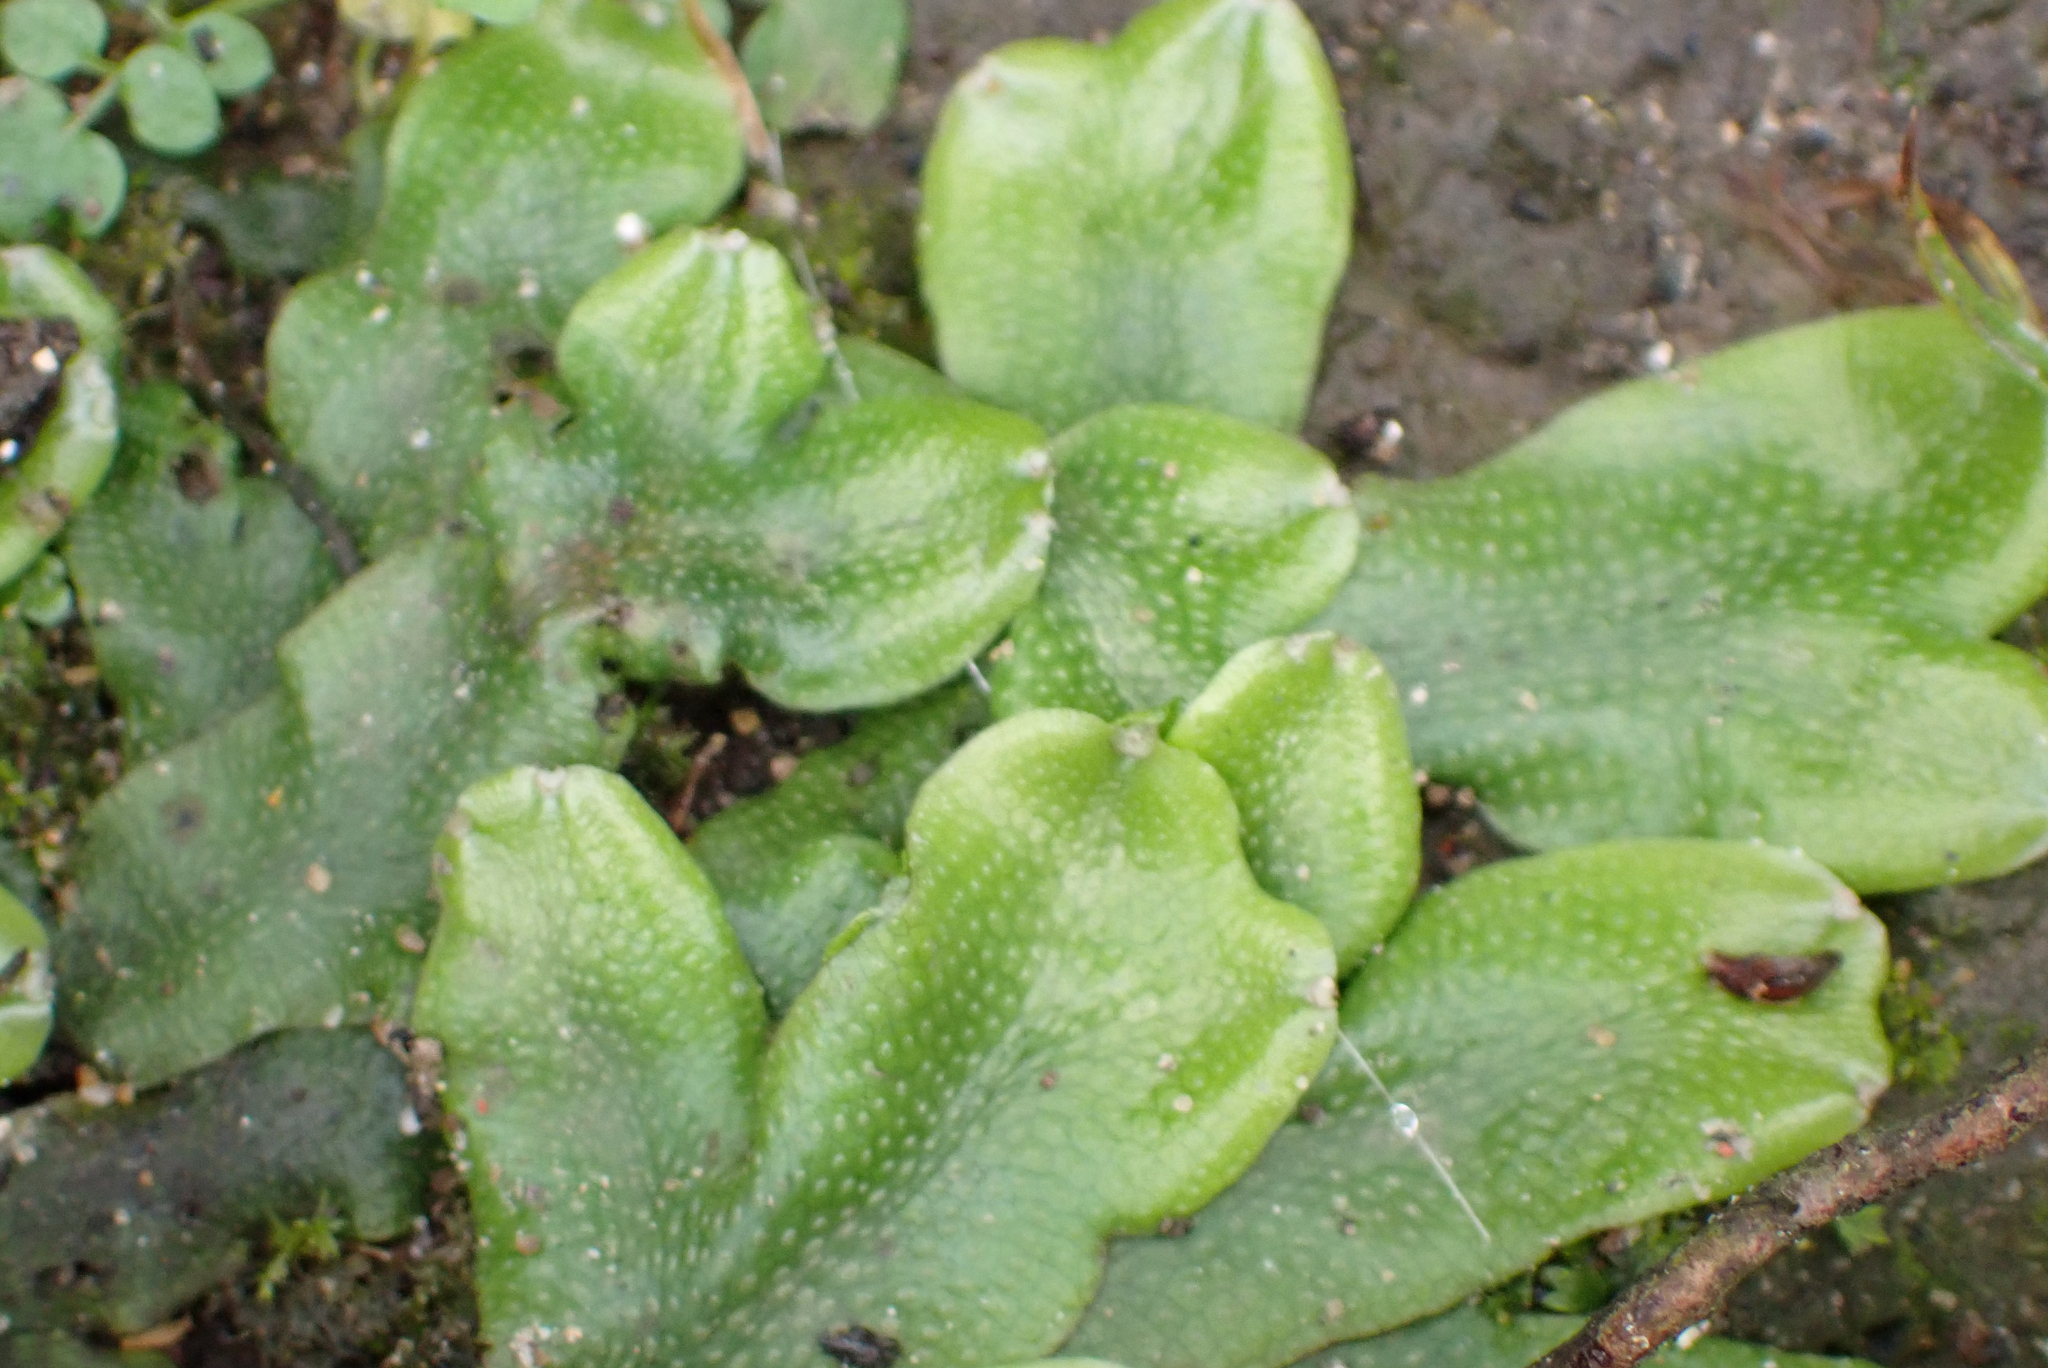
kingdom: Plantae
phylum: Marchantiophyta
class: Marchantiopsida
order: Marchantiales
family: Conocephalaceae
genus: Conocephalum
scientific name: Conocephalum conicum
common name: Great scented liverwort
